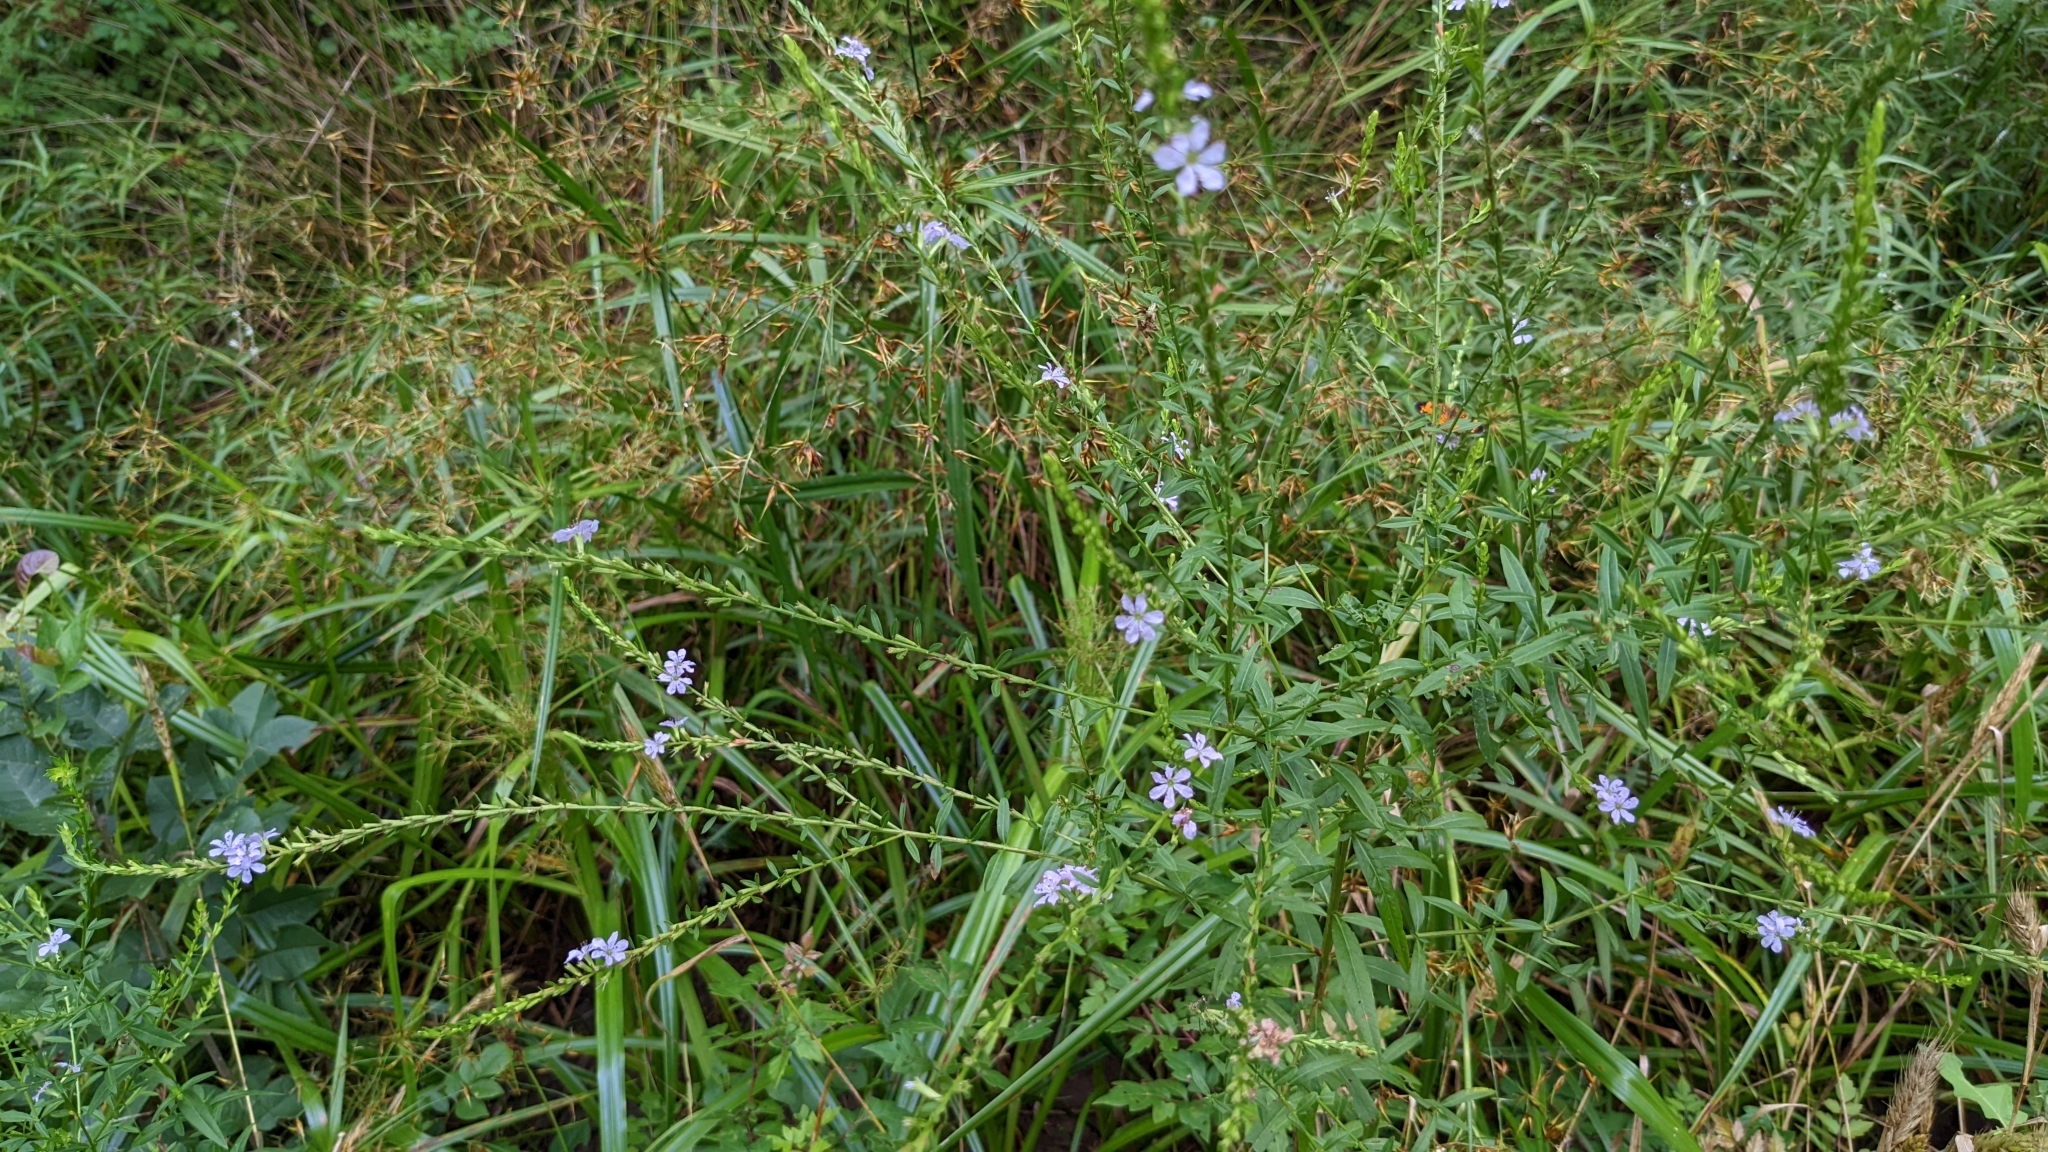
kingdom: Plantae
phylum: Tracheophyta
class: Magnoliopsida
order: Myrtales
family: Lythraceae
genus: Lythrum
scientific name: Lythrum alatum
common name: Winged loosestrife
